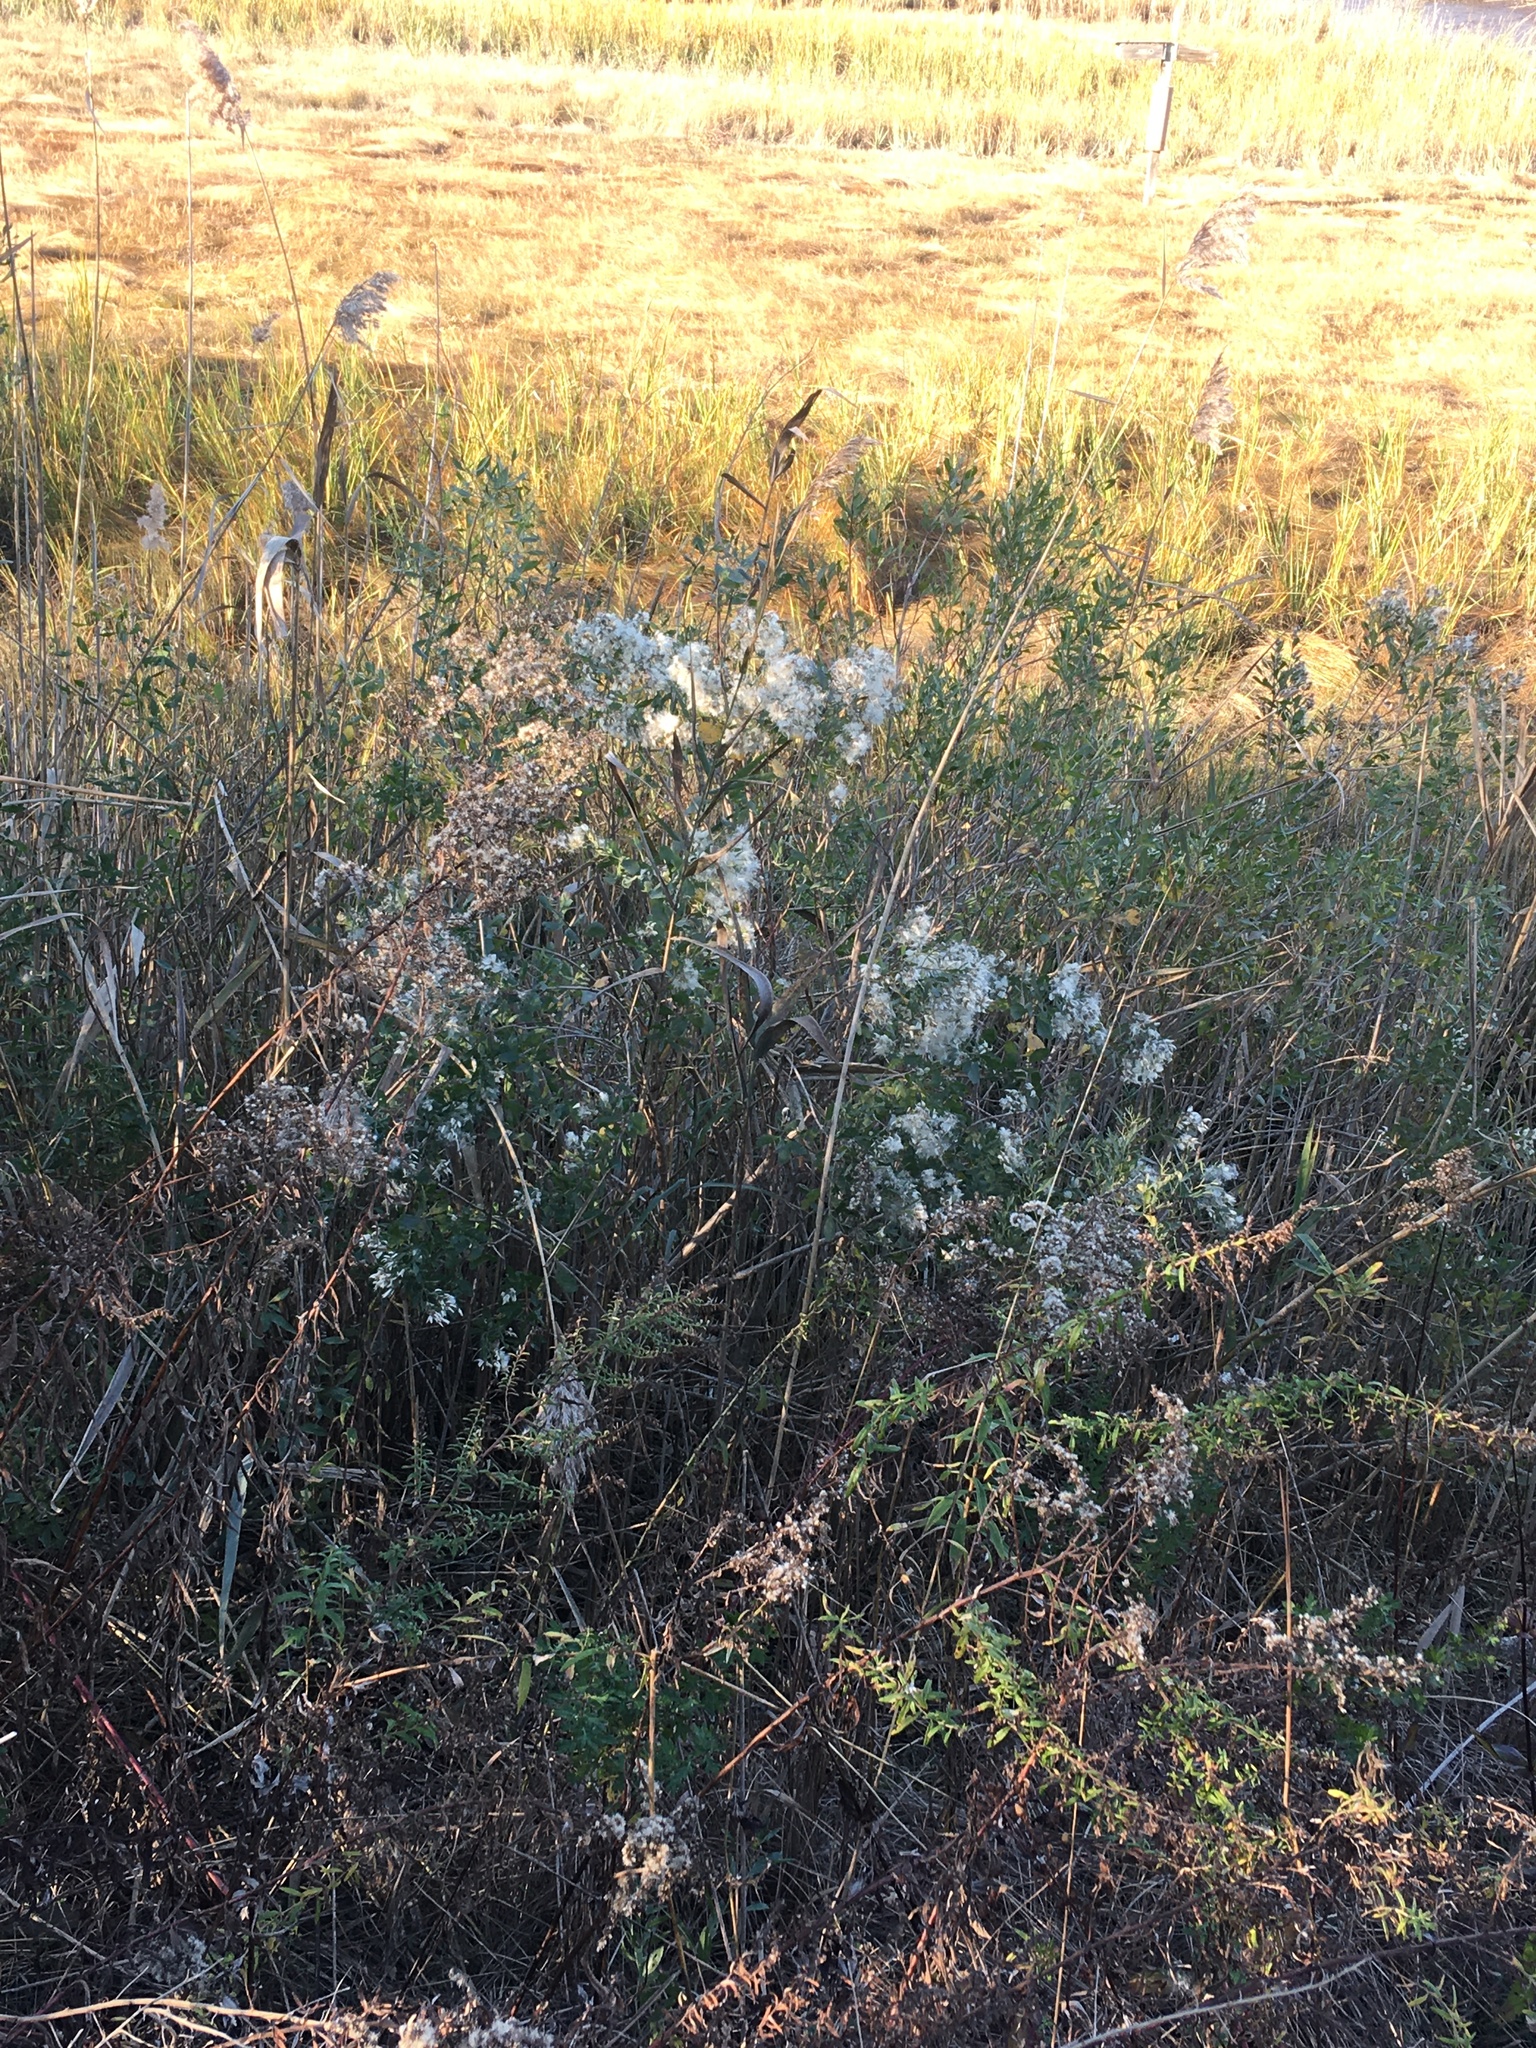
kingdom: Plantae
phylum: Tracheophyta
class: Magnoliopsida
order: Asterales
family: Asteraceae
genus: Baccharis
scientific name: Baccharis halimifolia
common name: Eastern baccharis
